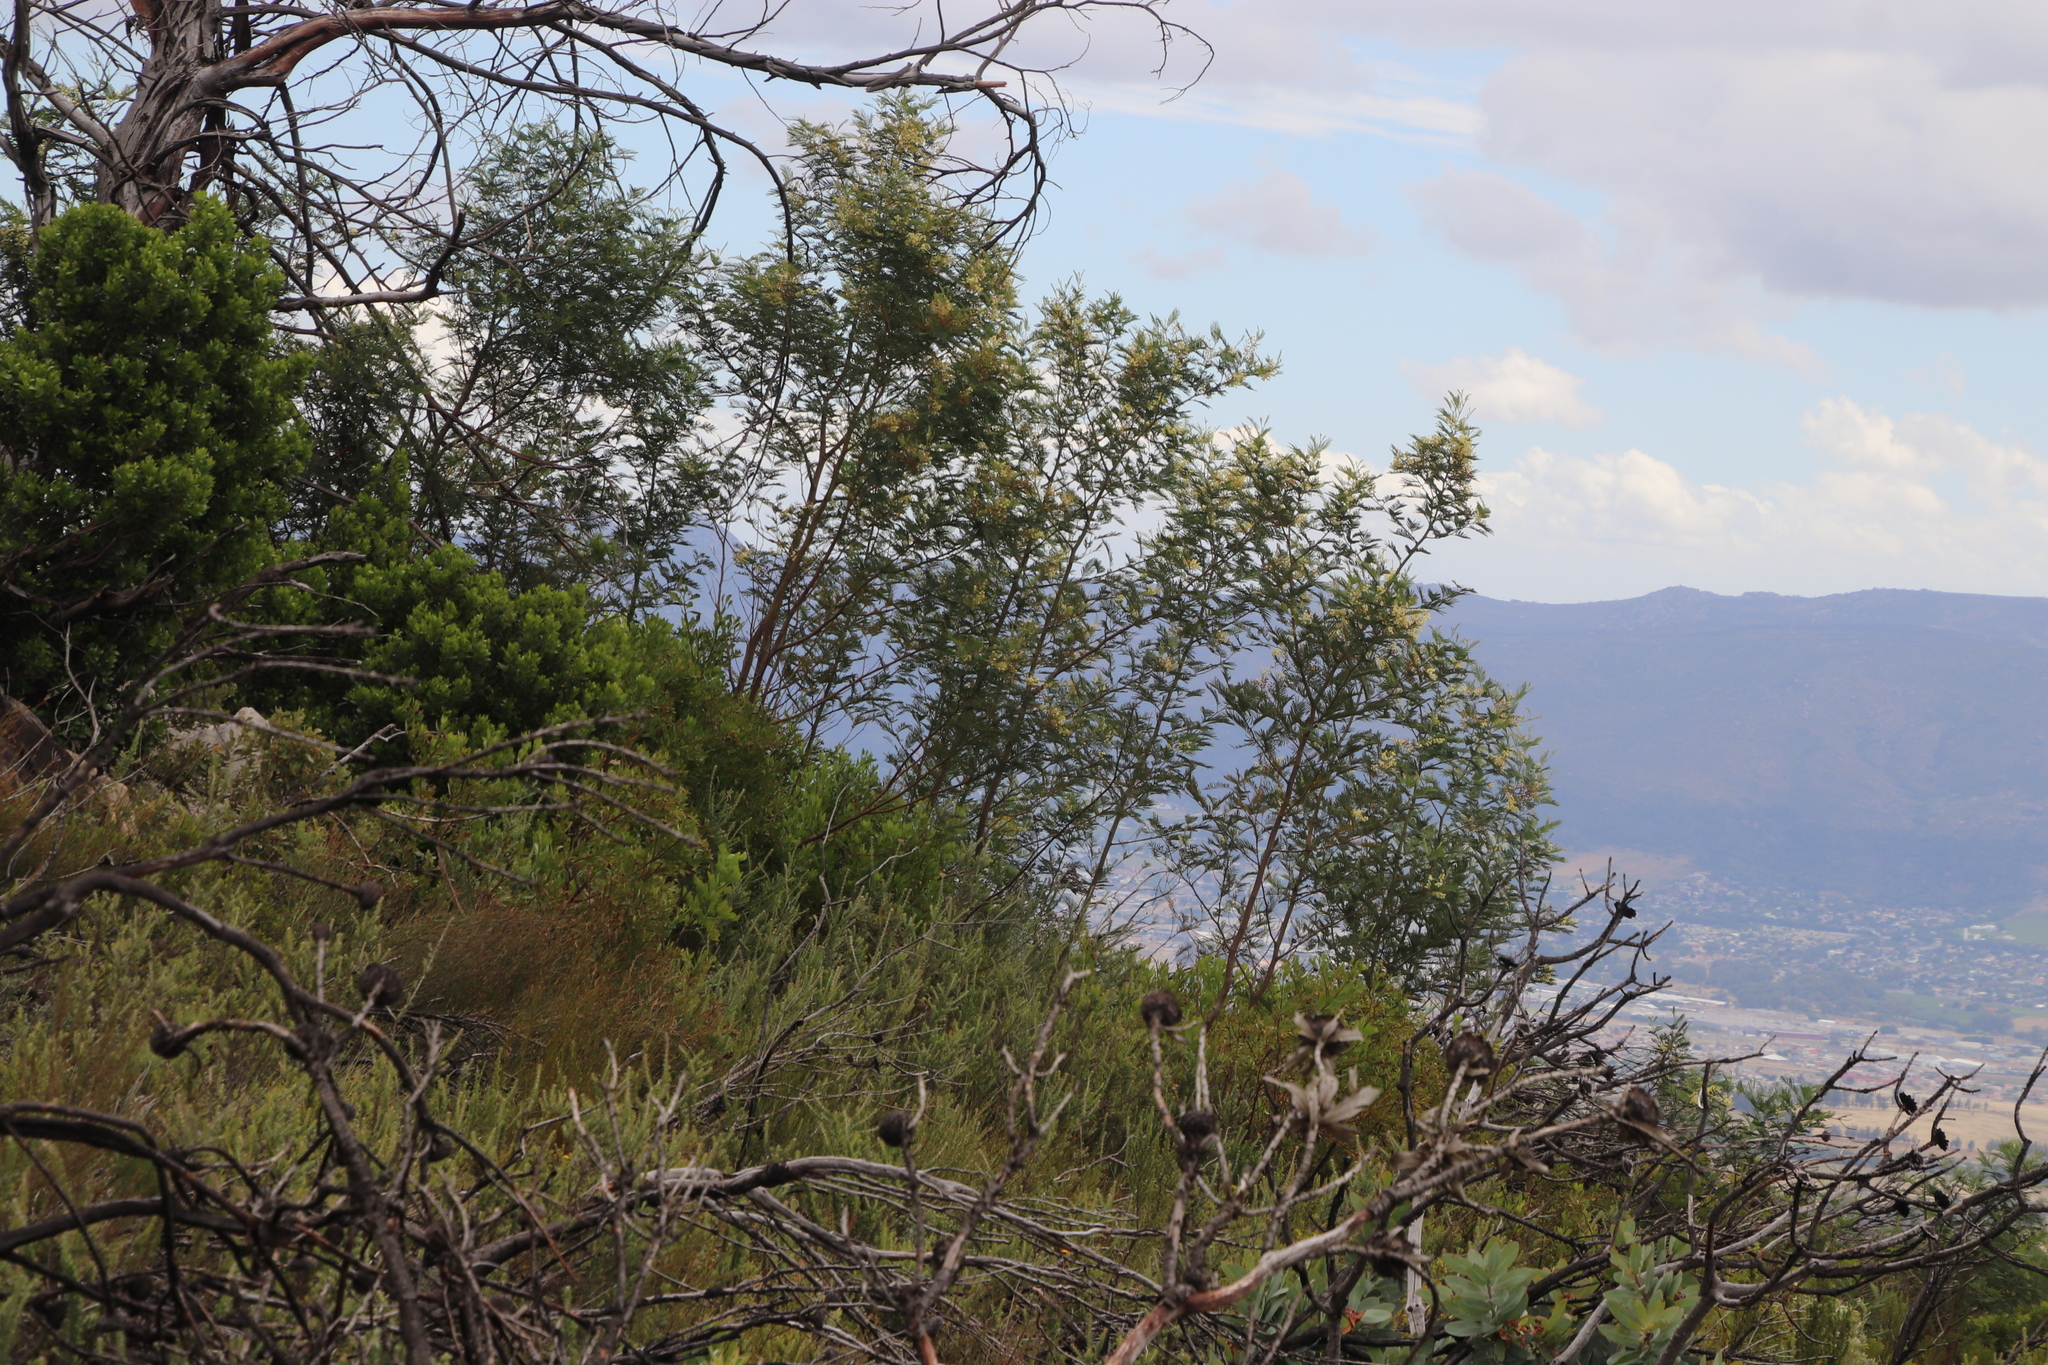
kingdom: Plantae
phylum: Tracheophyta
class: Magnoliopsida
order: Fabales
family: Fabaceae
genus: Acacia
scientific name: Acacia mearnsii
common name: Black wattle
